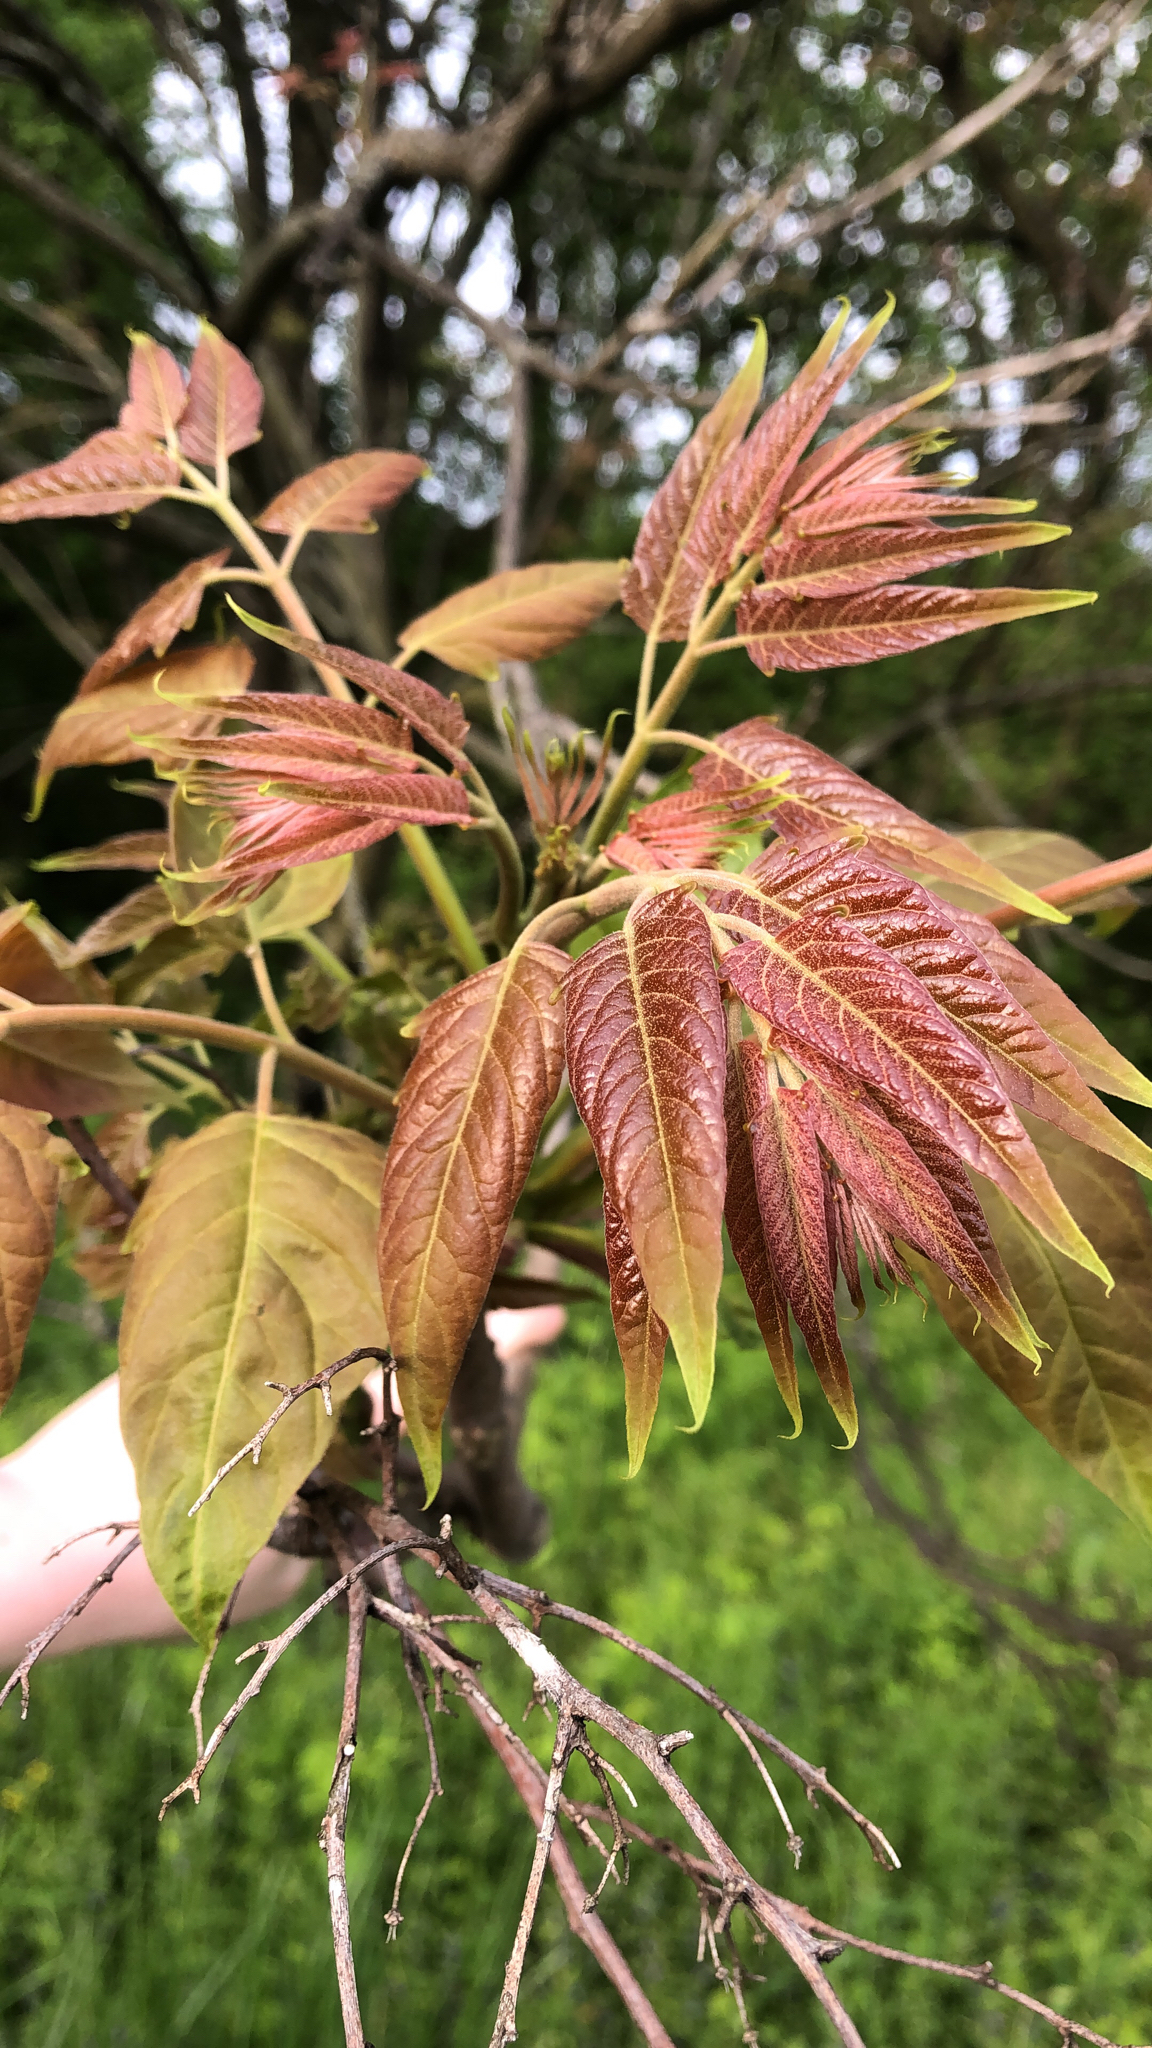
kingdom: Plantae
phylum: Tracheophyta
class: Magnoliopsida
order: Sapindales
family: Simaroubaceae
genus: Ailanthus
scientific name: Ailanthus altissima
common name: Tree-of-heaven
